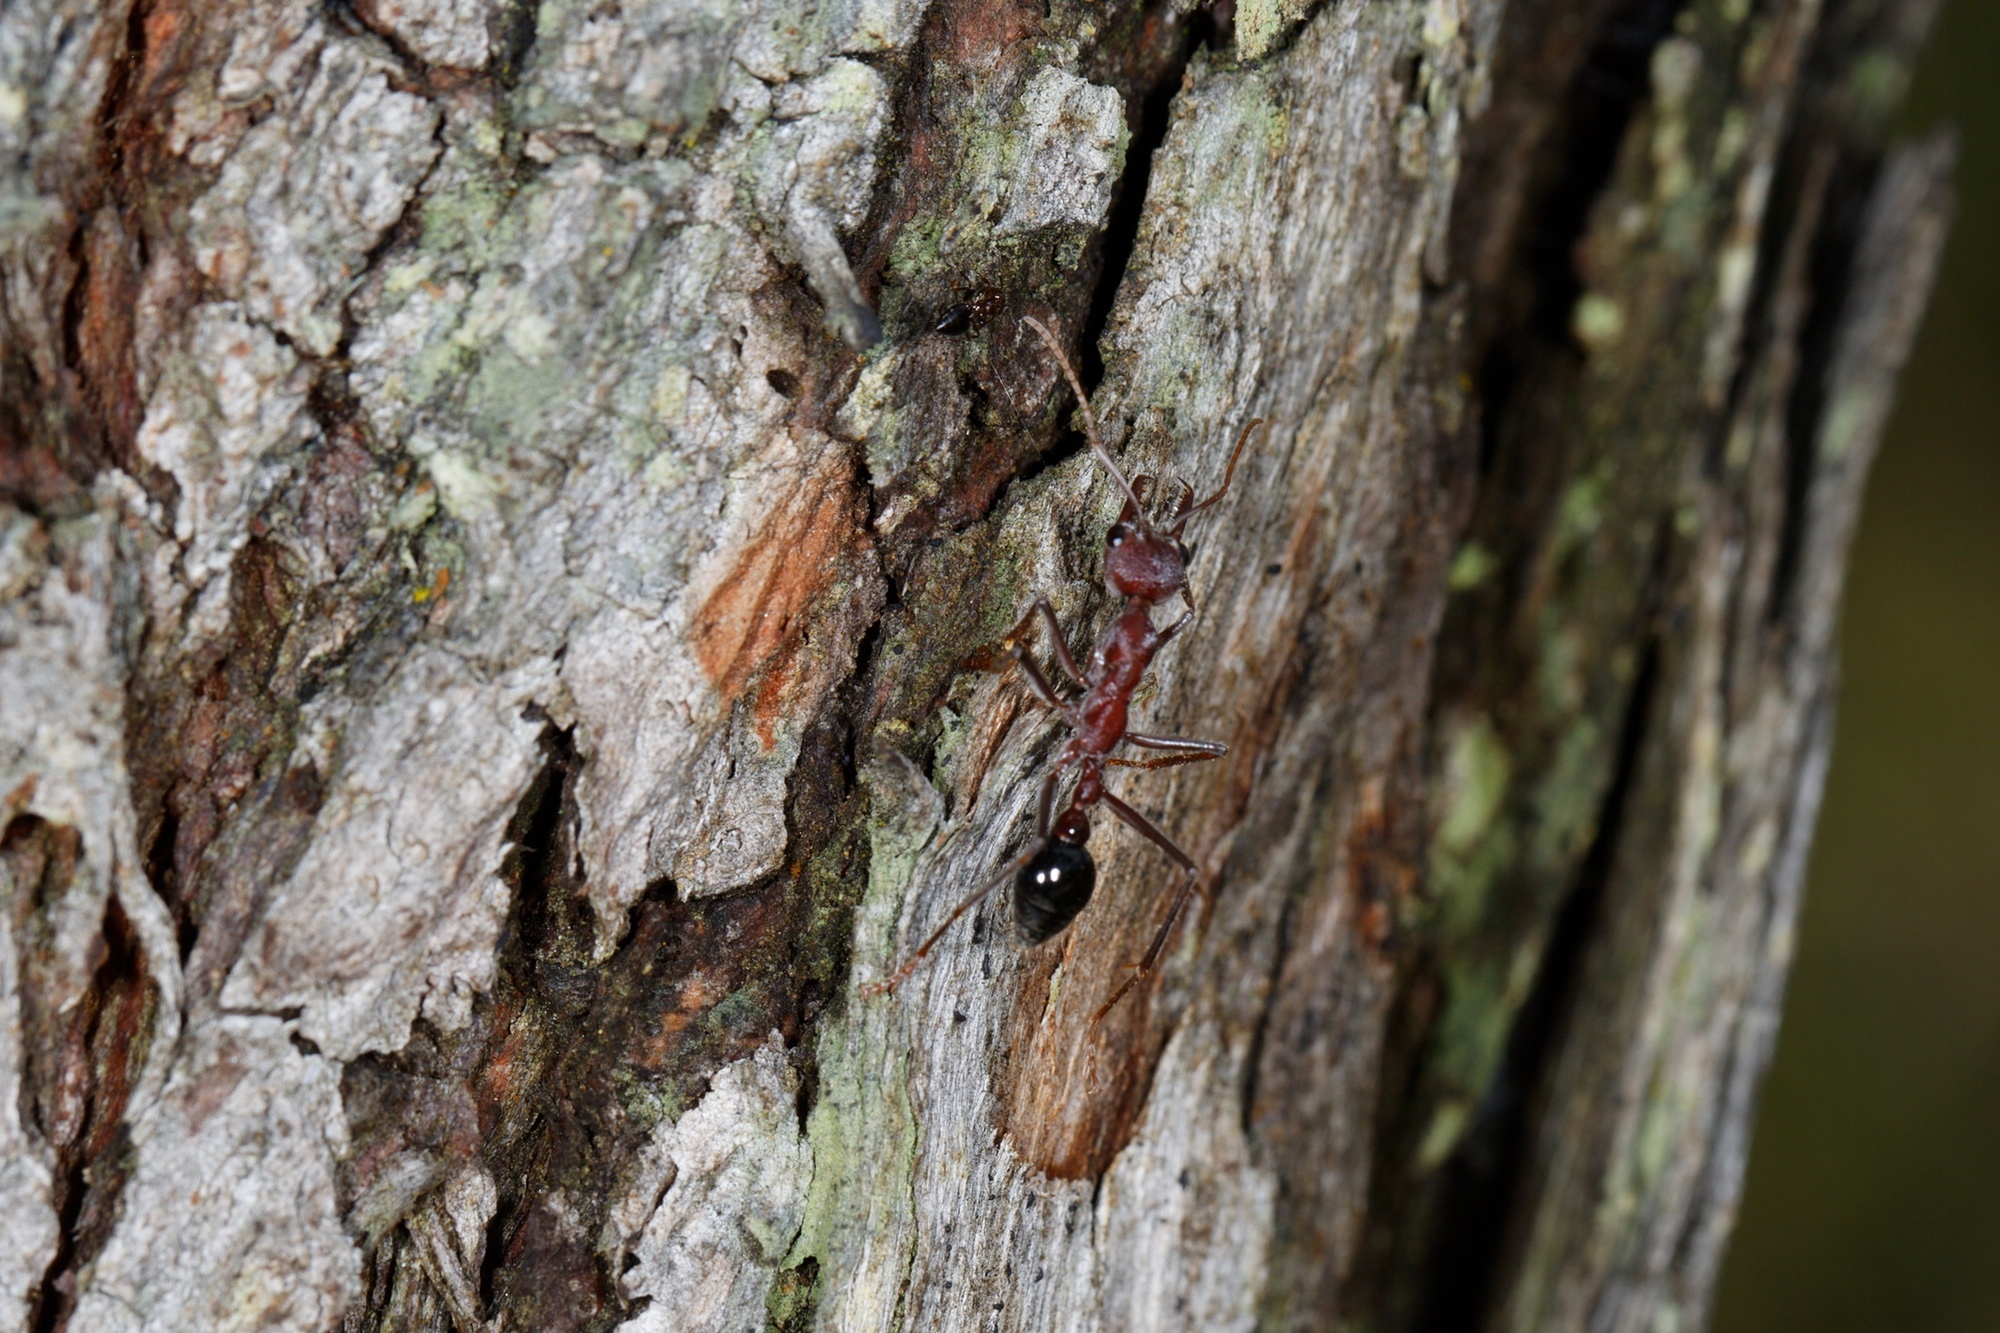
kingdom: Animalia
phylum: Arthropoda
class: Insecta
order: Hymenoptera
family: Formicidae
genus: Myrmecia
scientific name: Myrmecia simillima
